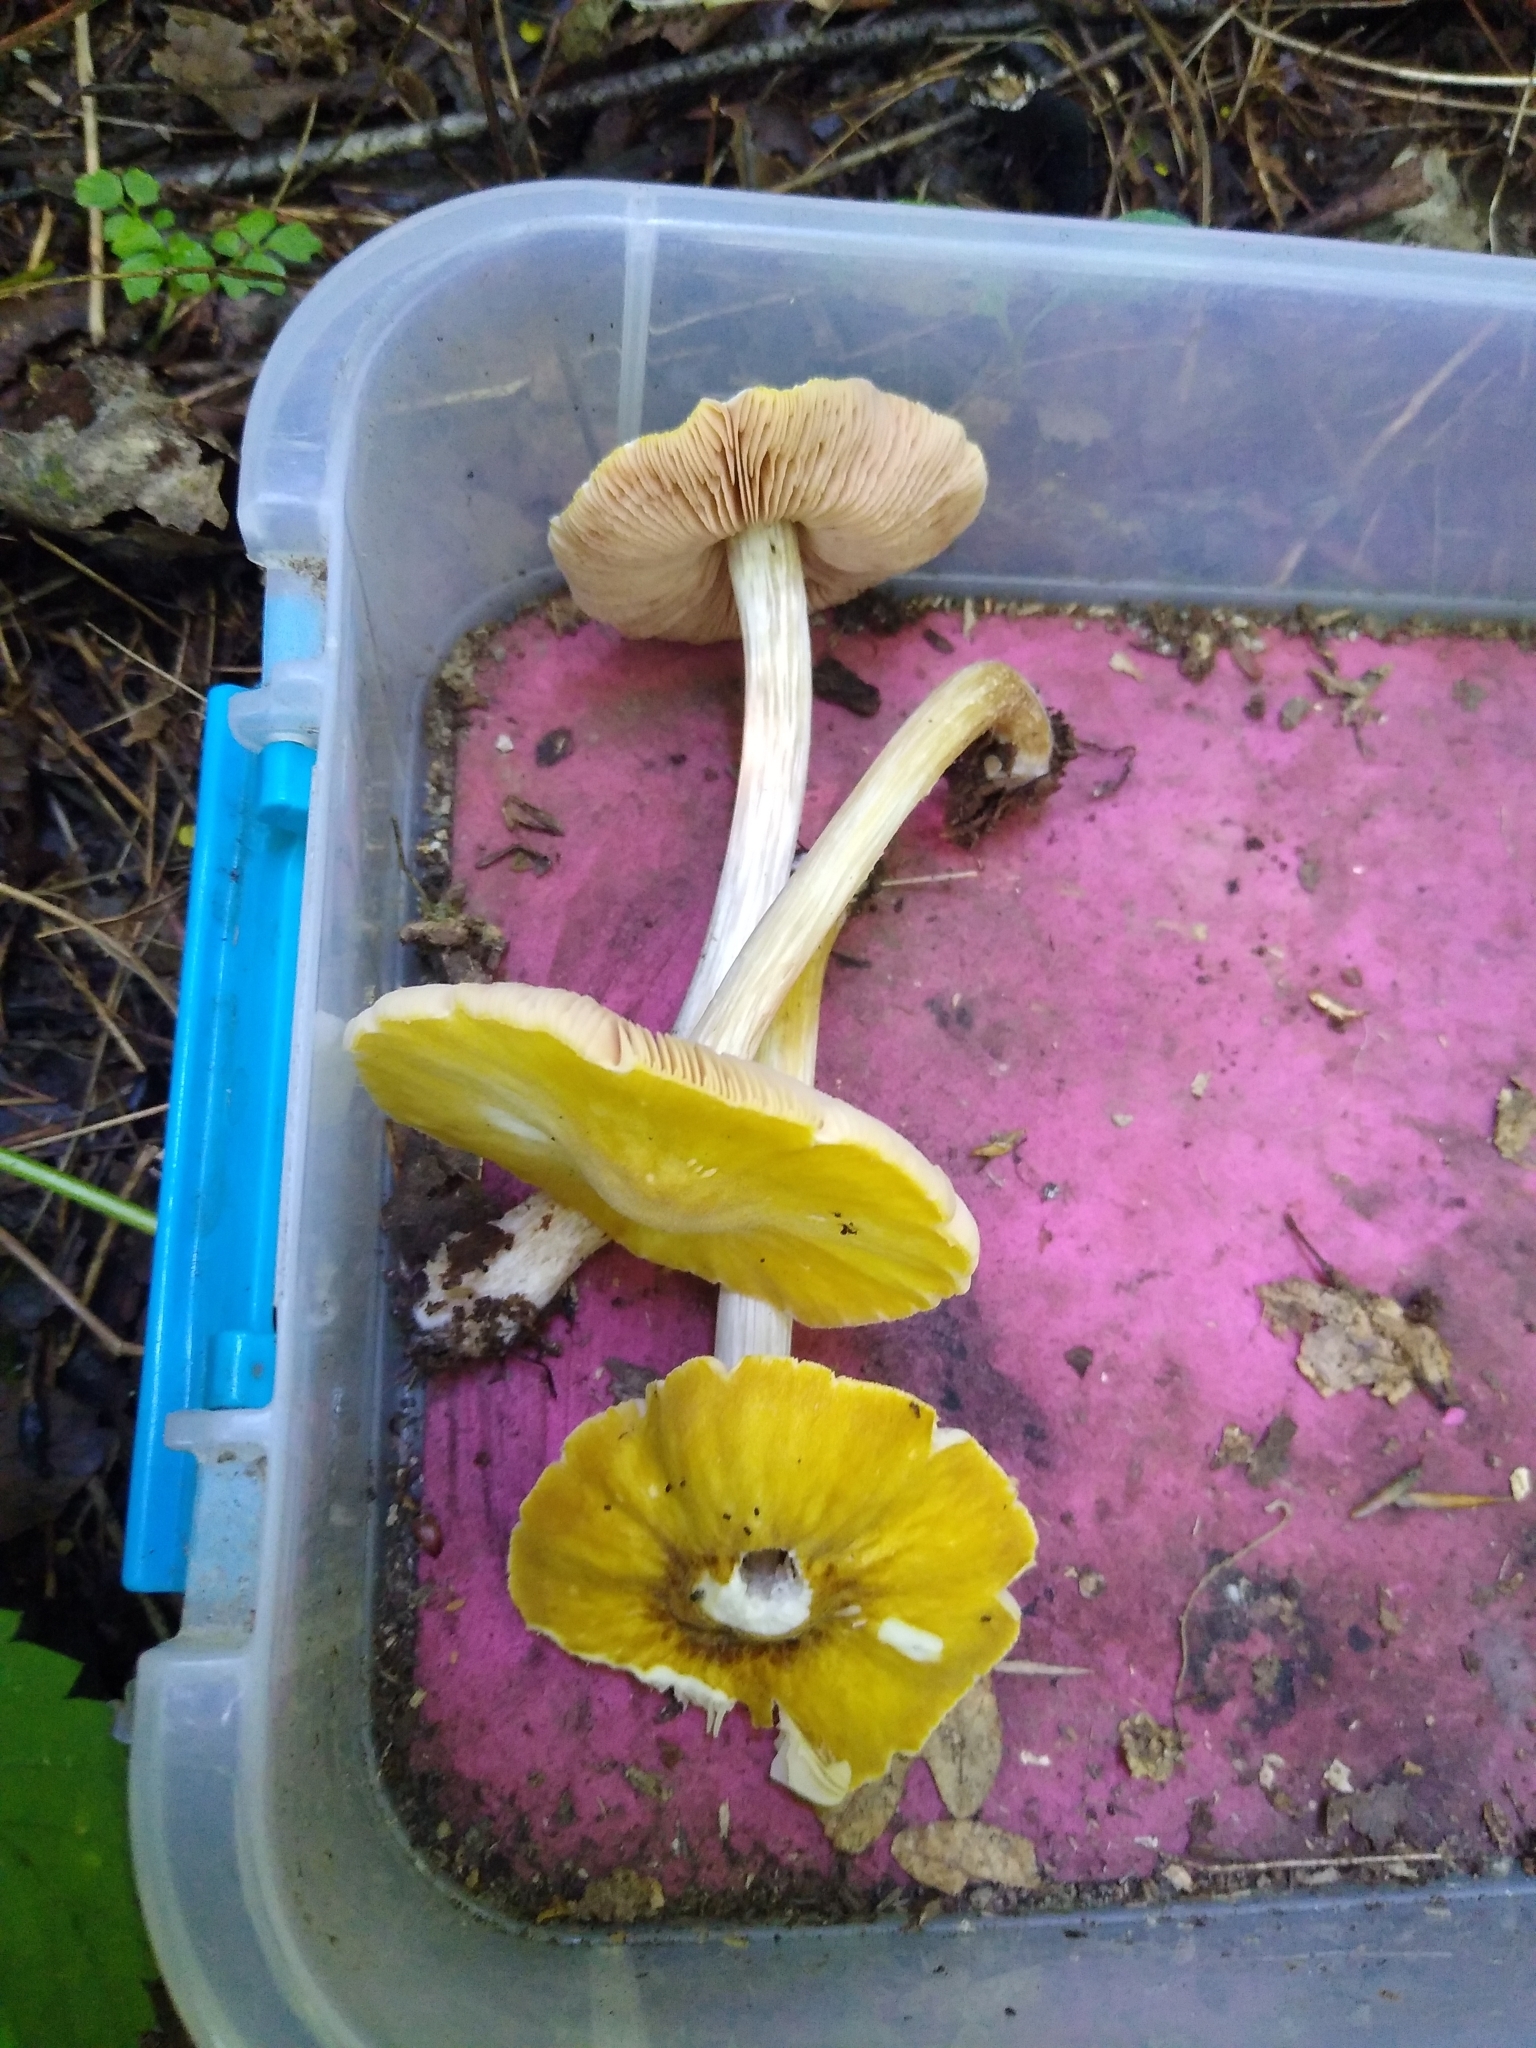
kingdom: Fungi
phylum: Basidiomycota
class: Agaricomycetes
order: Agaricales
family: Pluteaceae
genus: Pluteus
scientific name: Pluteus flavofuligineus
